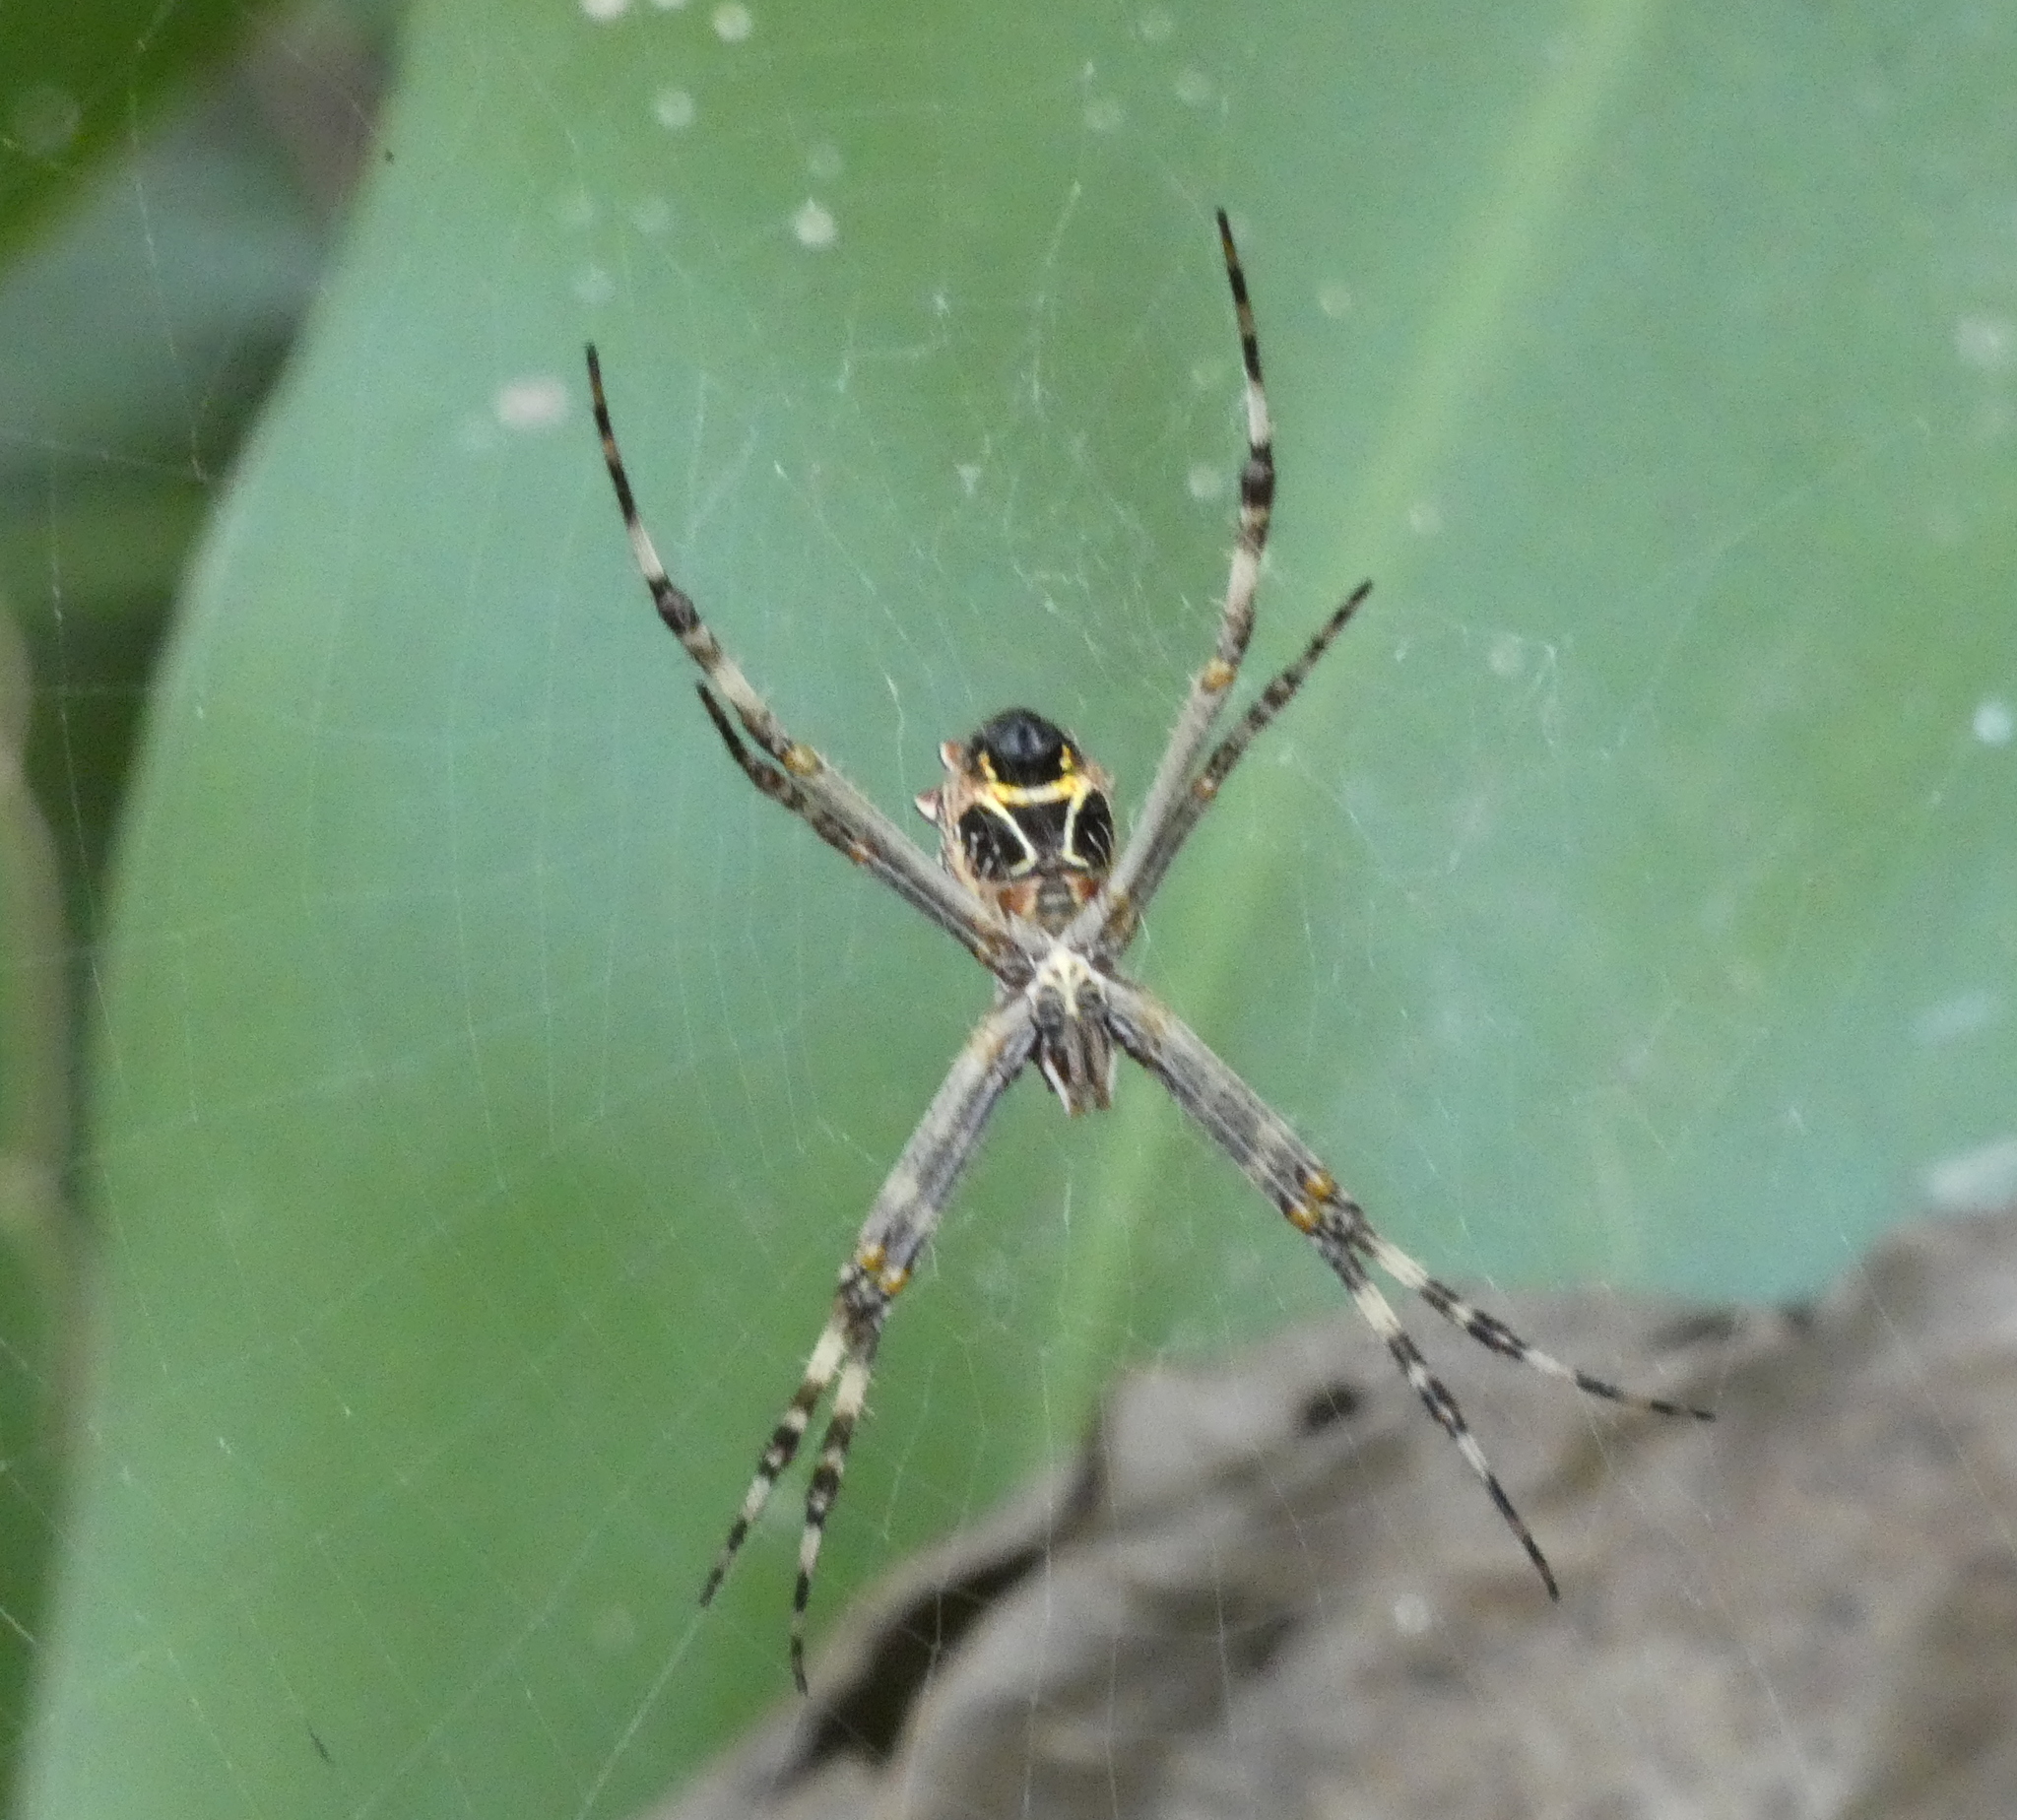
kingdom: Animalia
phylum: Arthropoda
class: Arachnida
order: Araneae
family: Araneidae
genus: Argiope
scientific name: Argiope argentata
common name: Orb weavers
